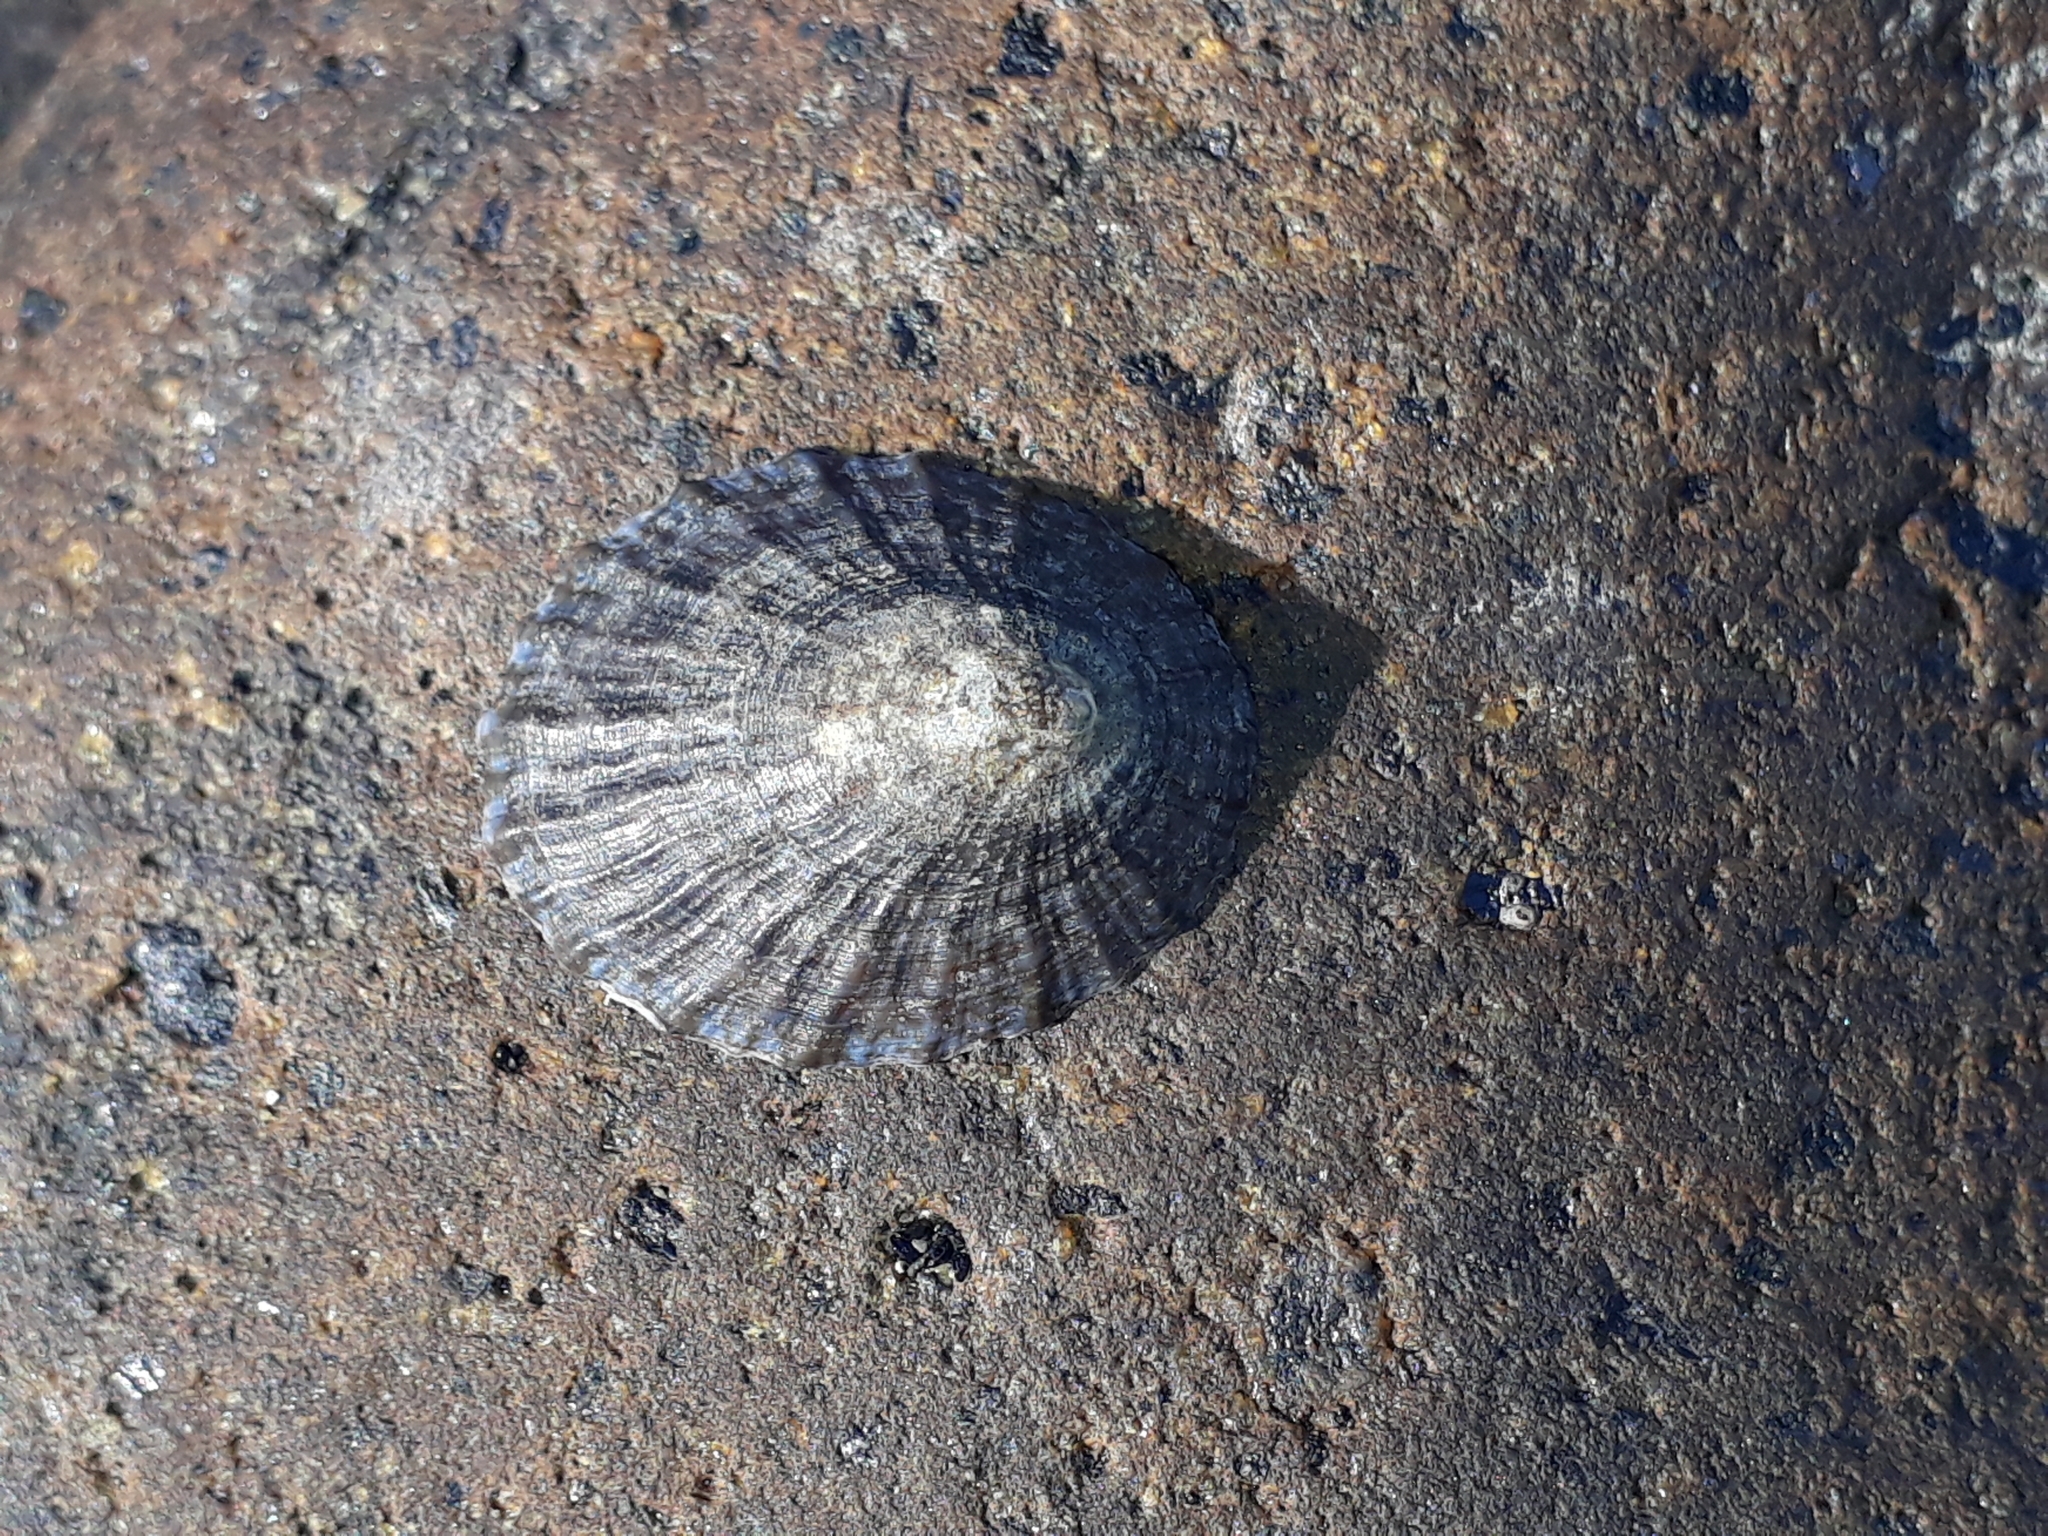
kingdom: Animalia
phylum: Mollusca
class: Gastropoda
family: Nacellidae
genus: Cellana
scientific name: Cellana radians
